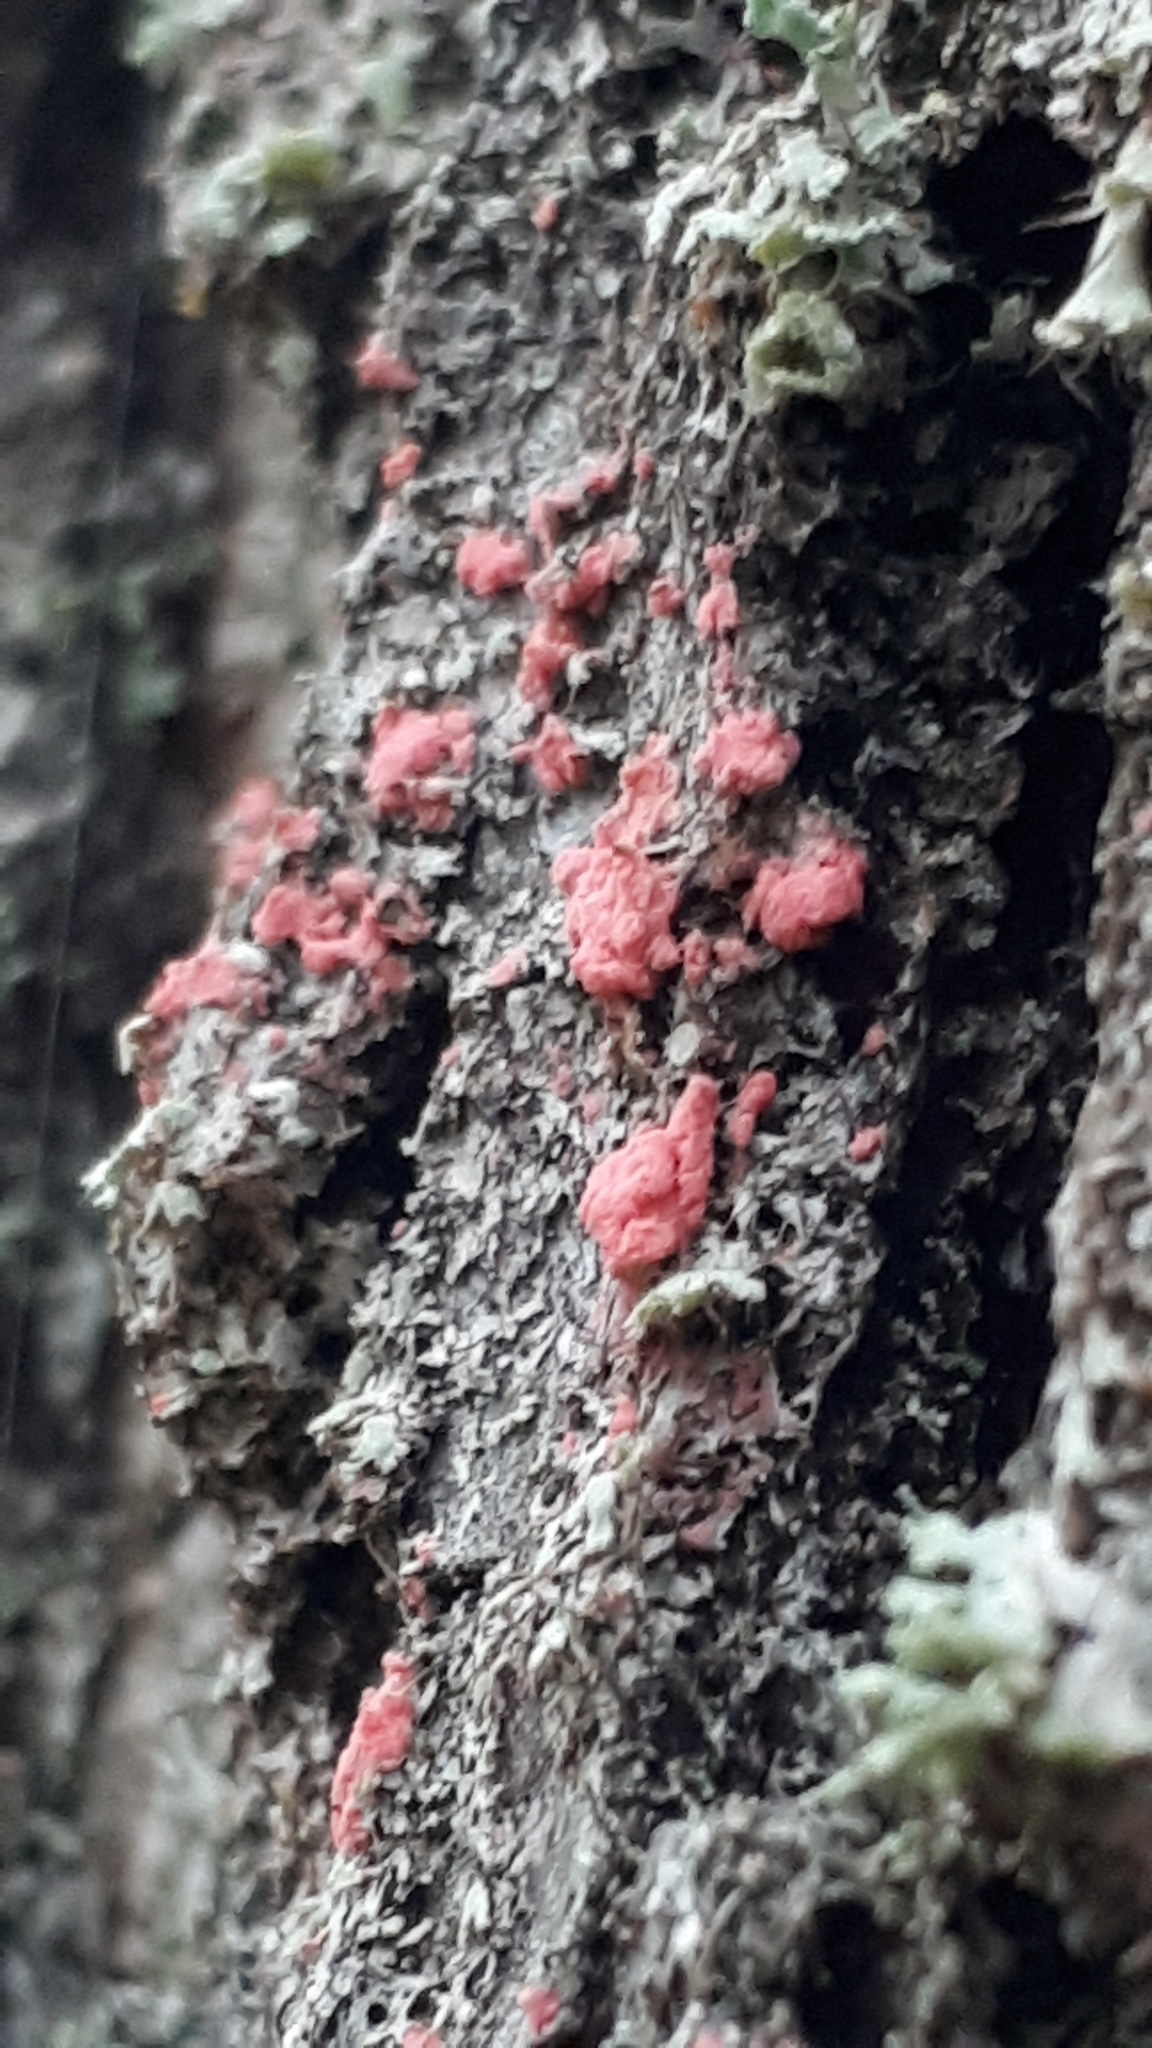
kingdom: Fungi
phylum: Ascomycota
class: Sordariomycetes
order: Hypocreales
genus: Illosporiopsis
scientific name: Illosporiopsis christiansenii
